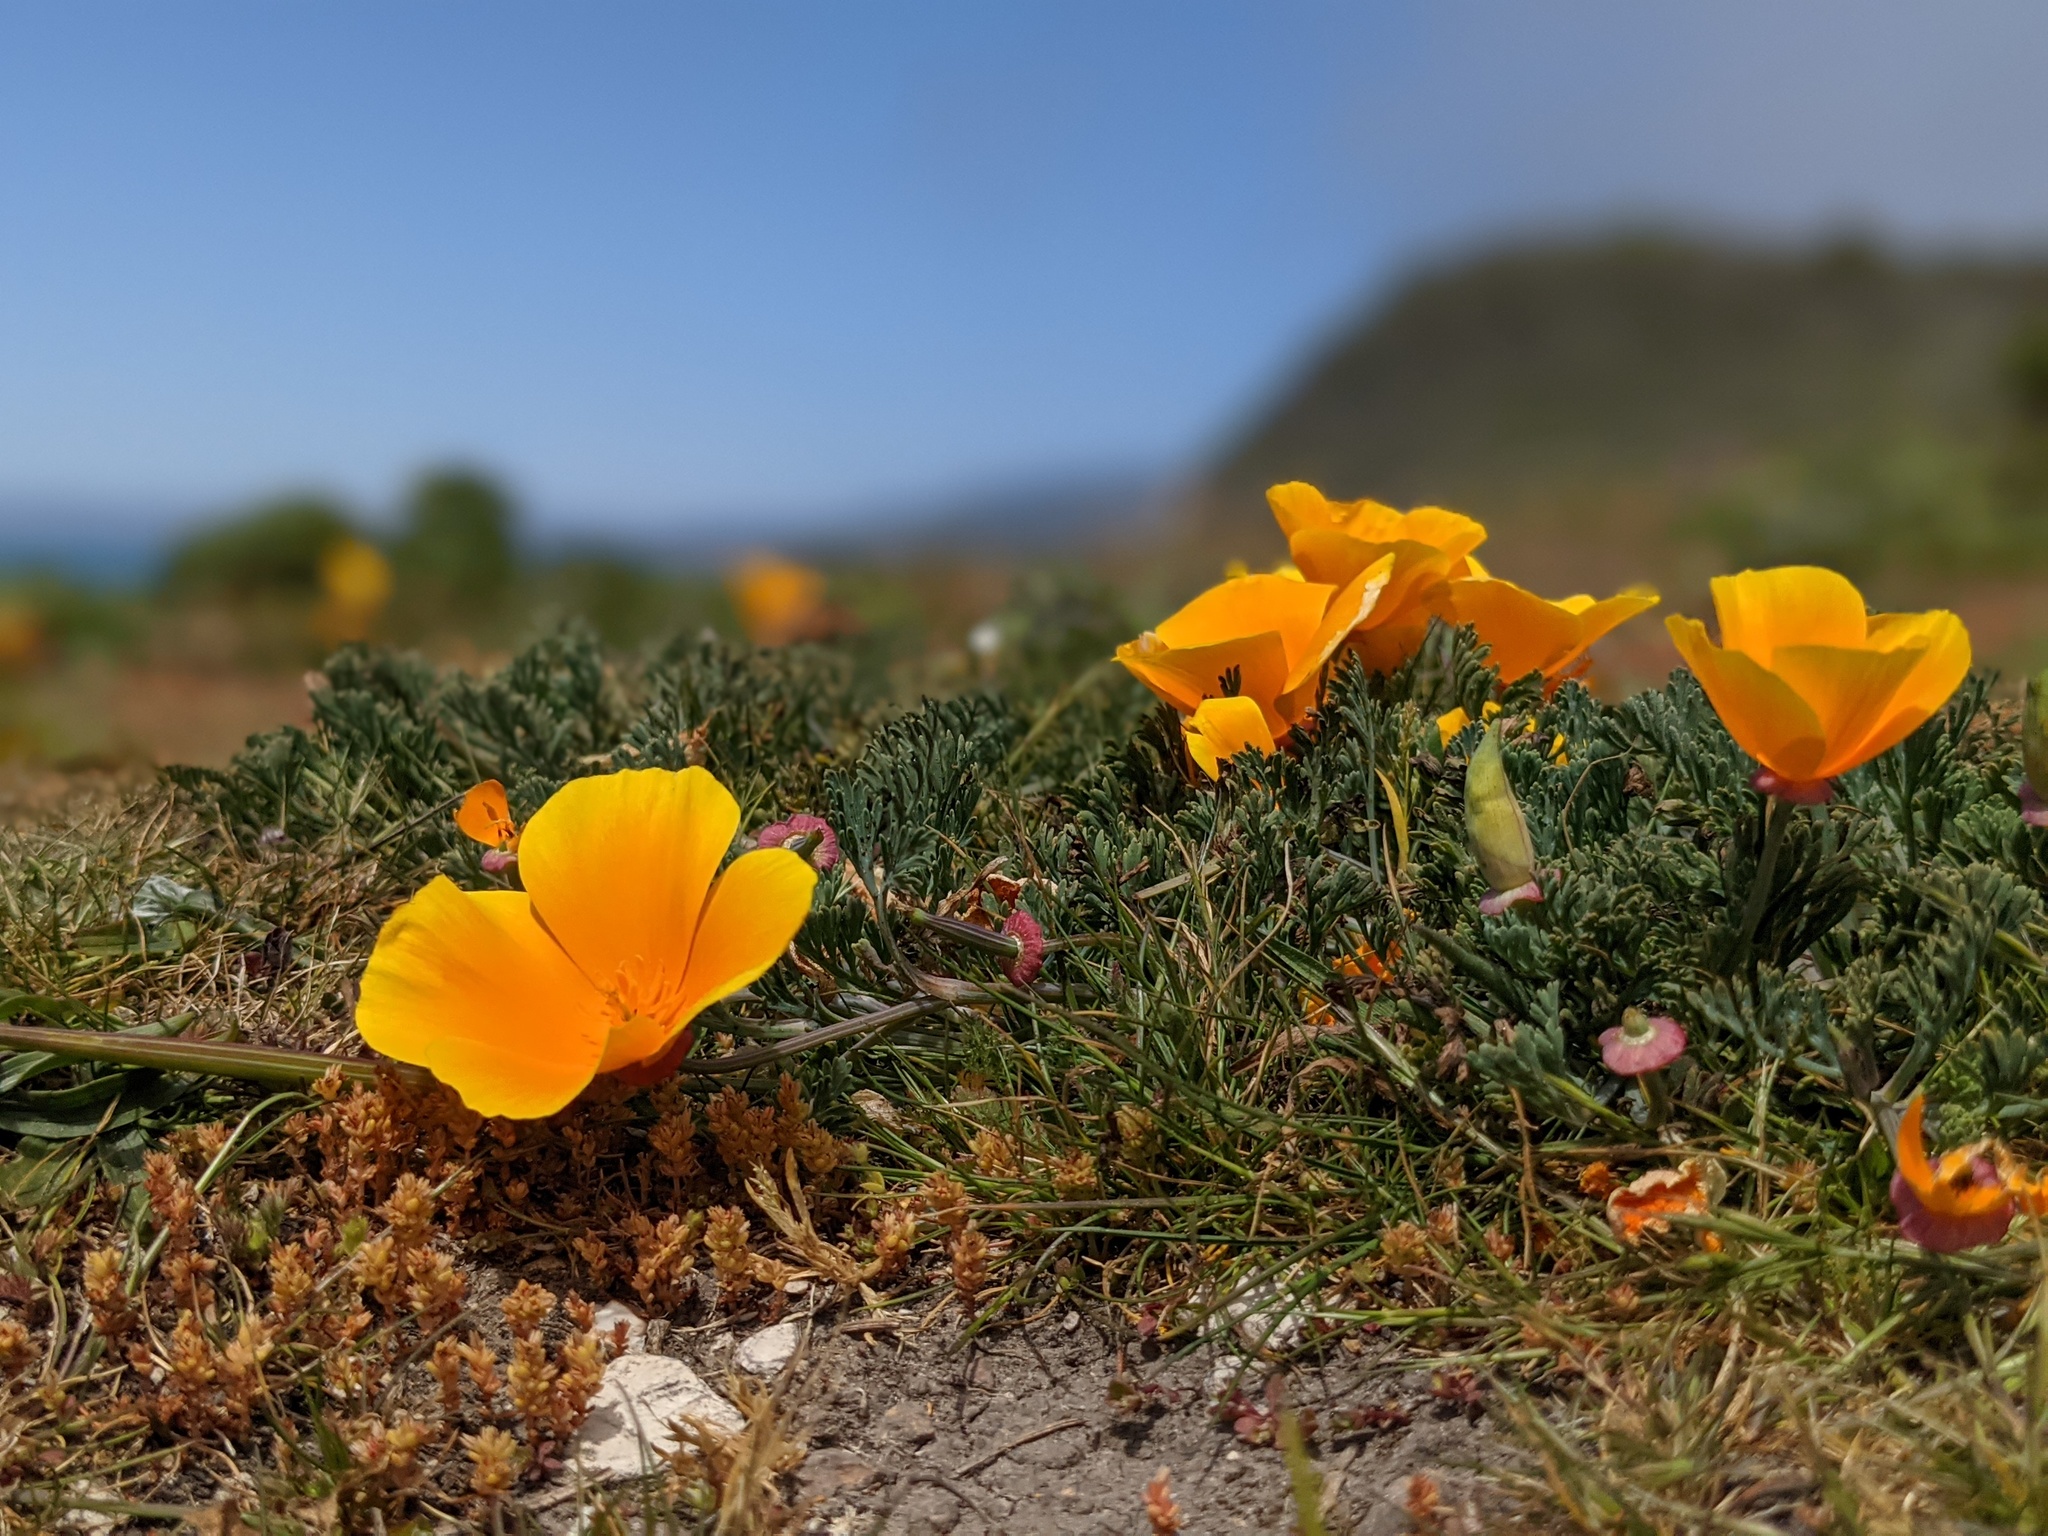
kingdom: Plantae
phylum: Tracheophyta
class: Magnoliopsida
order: Ranunculales
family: Papaveraceae
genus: Eschscholzia
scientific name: Eschscholzia californica
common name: California poppy
